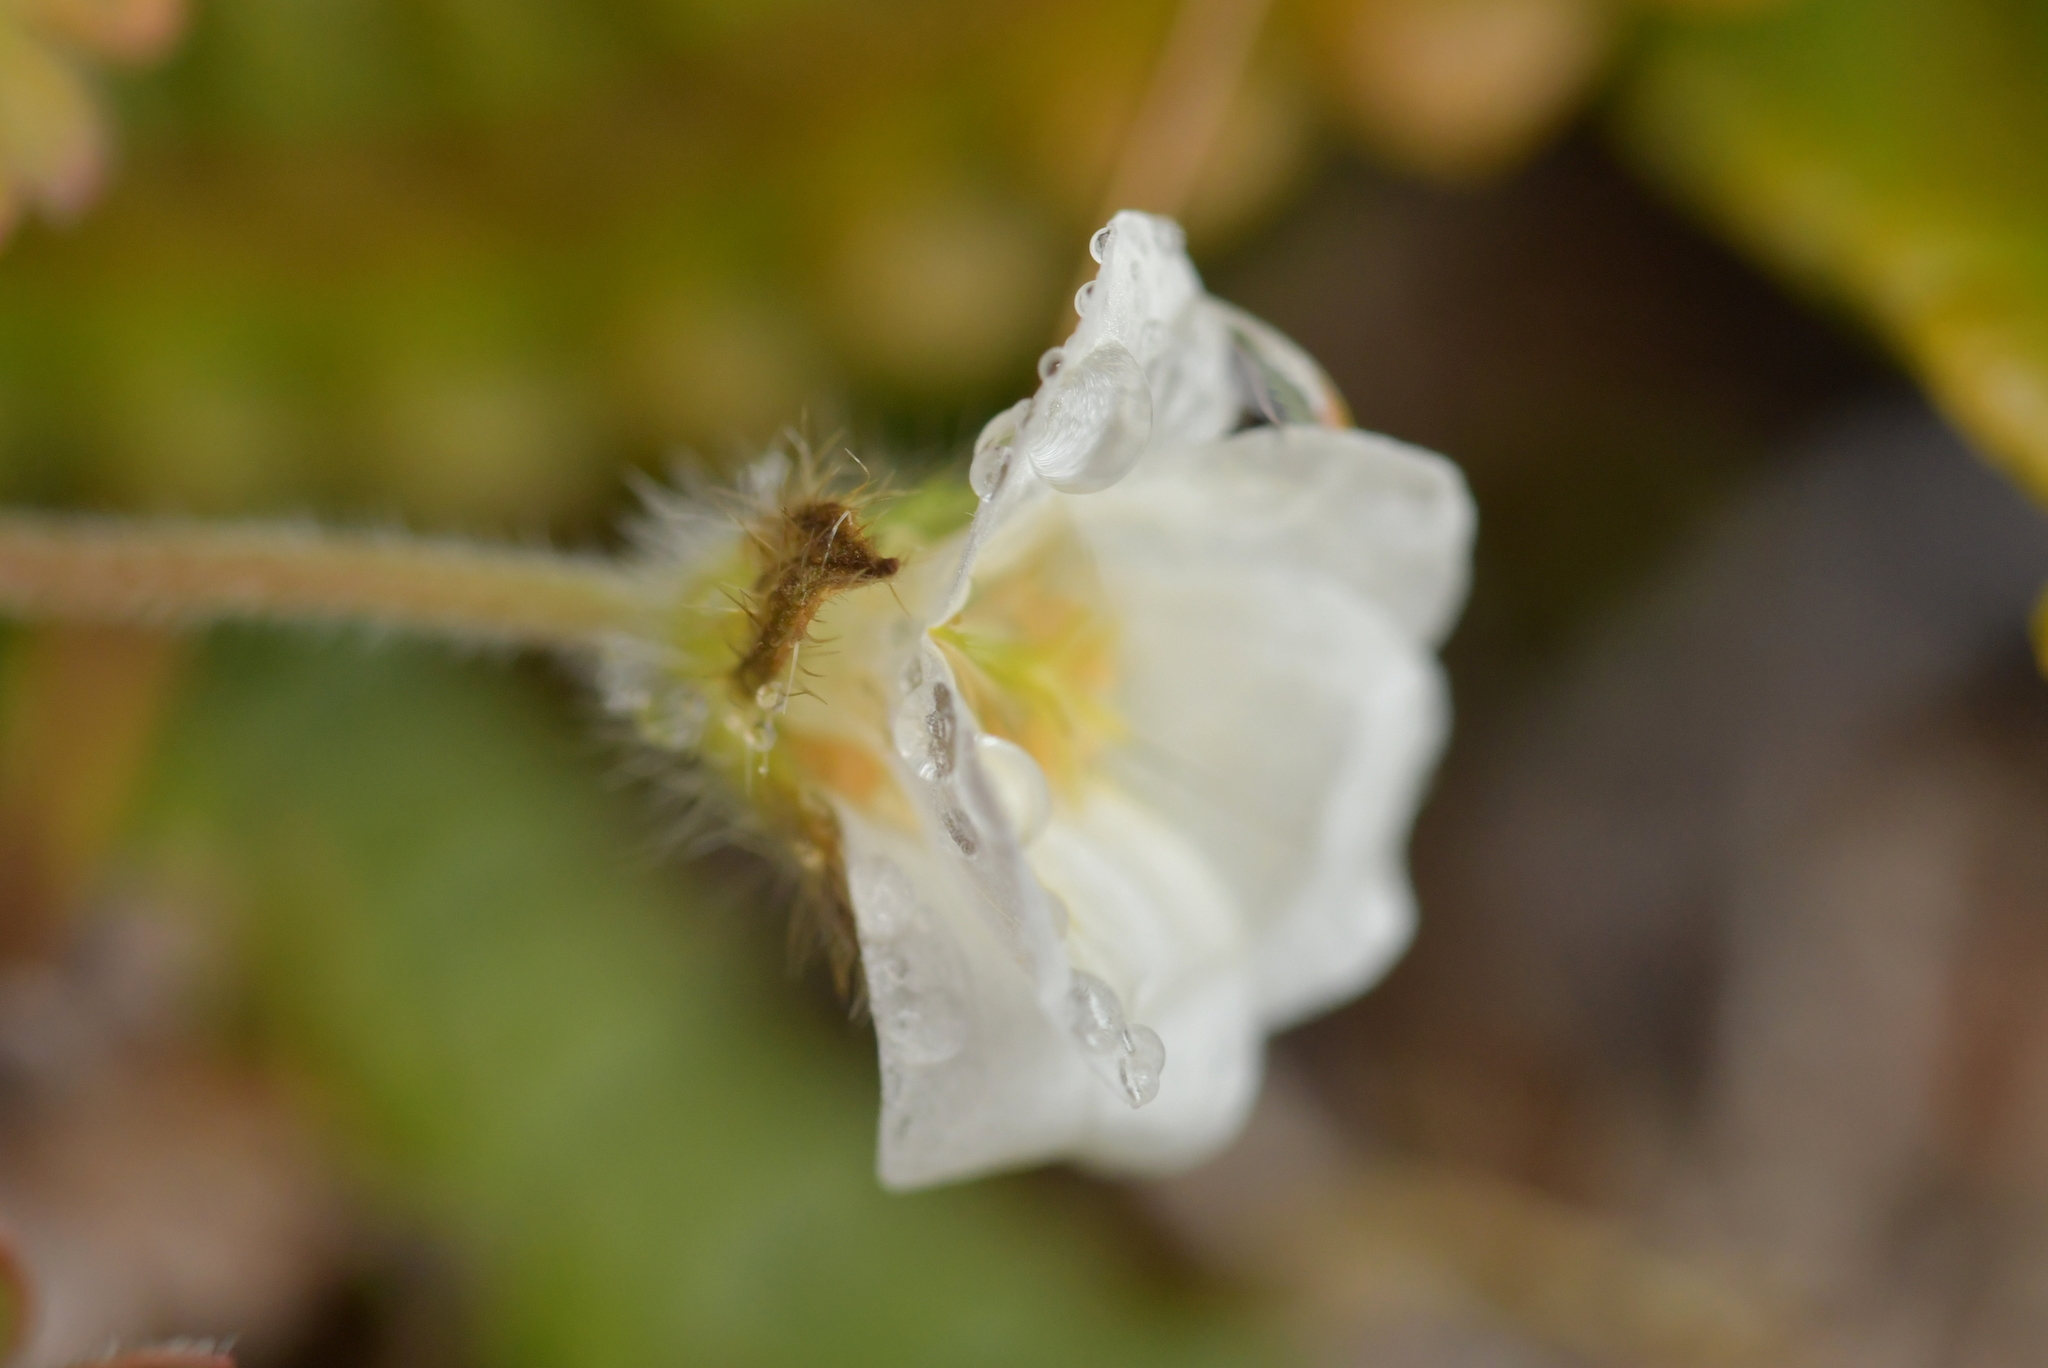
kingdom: Plantae
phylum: Tracheophyta
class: Magnoliopsida
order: Geraniales
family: Geraniaceae
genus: Geranium
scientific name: Geranium
